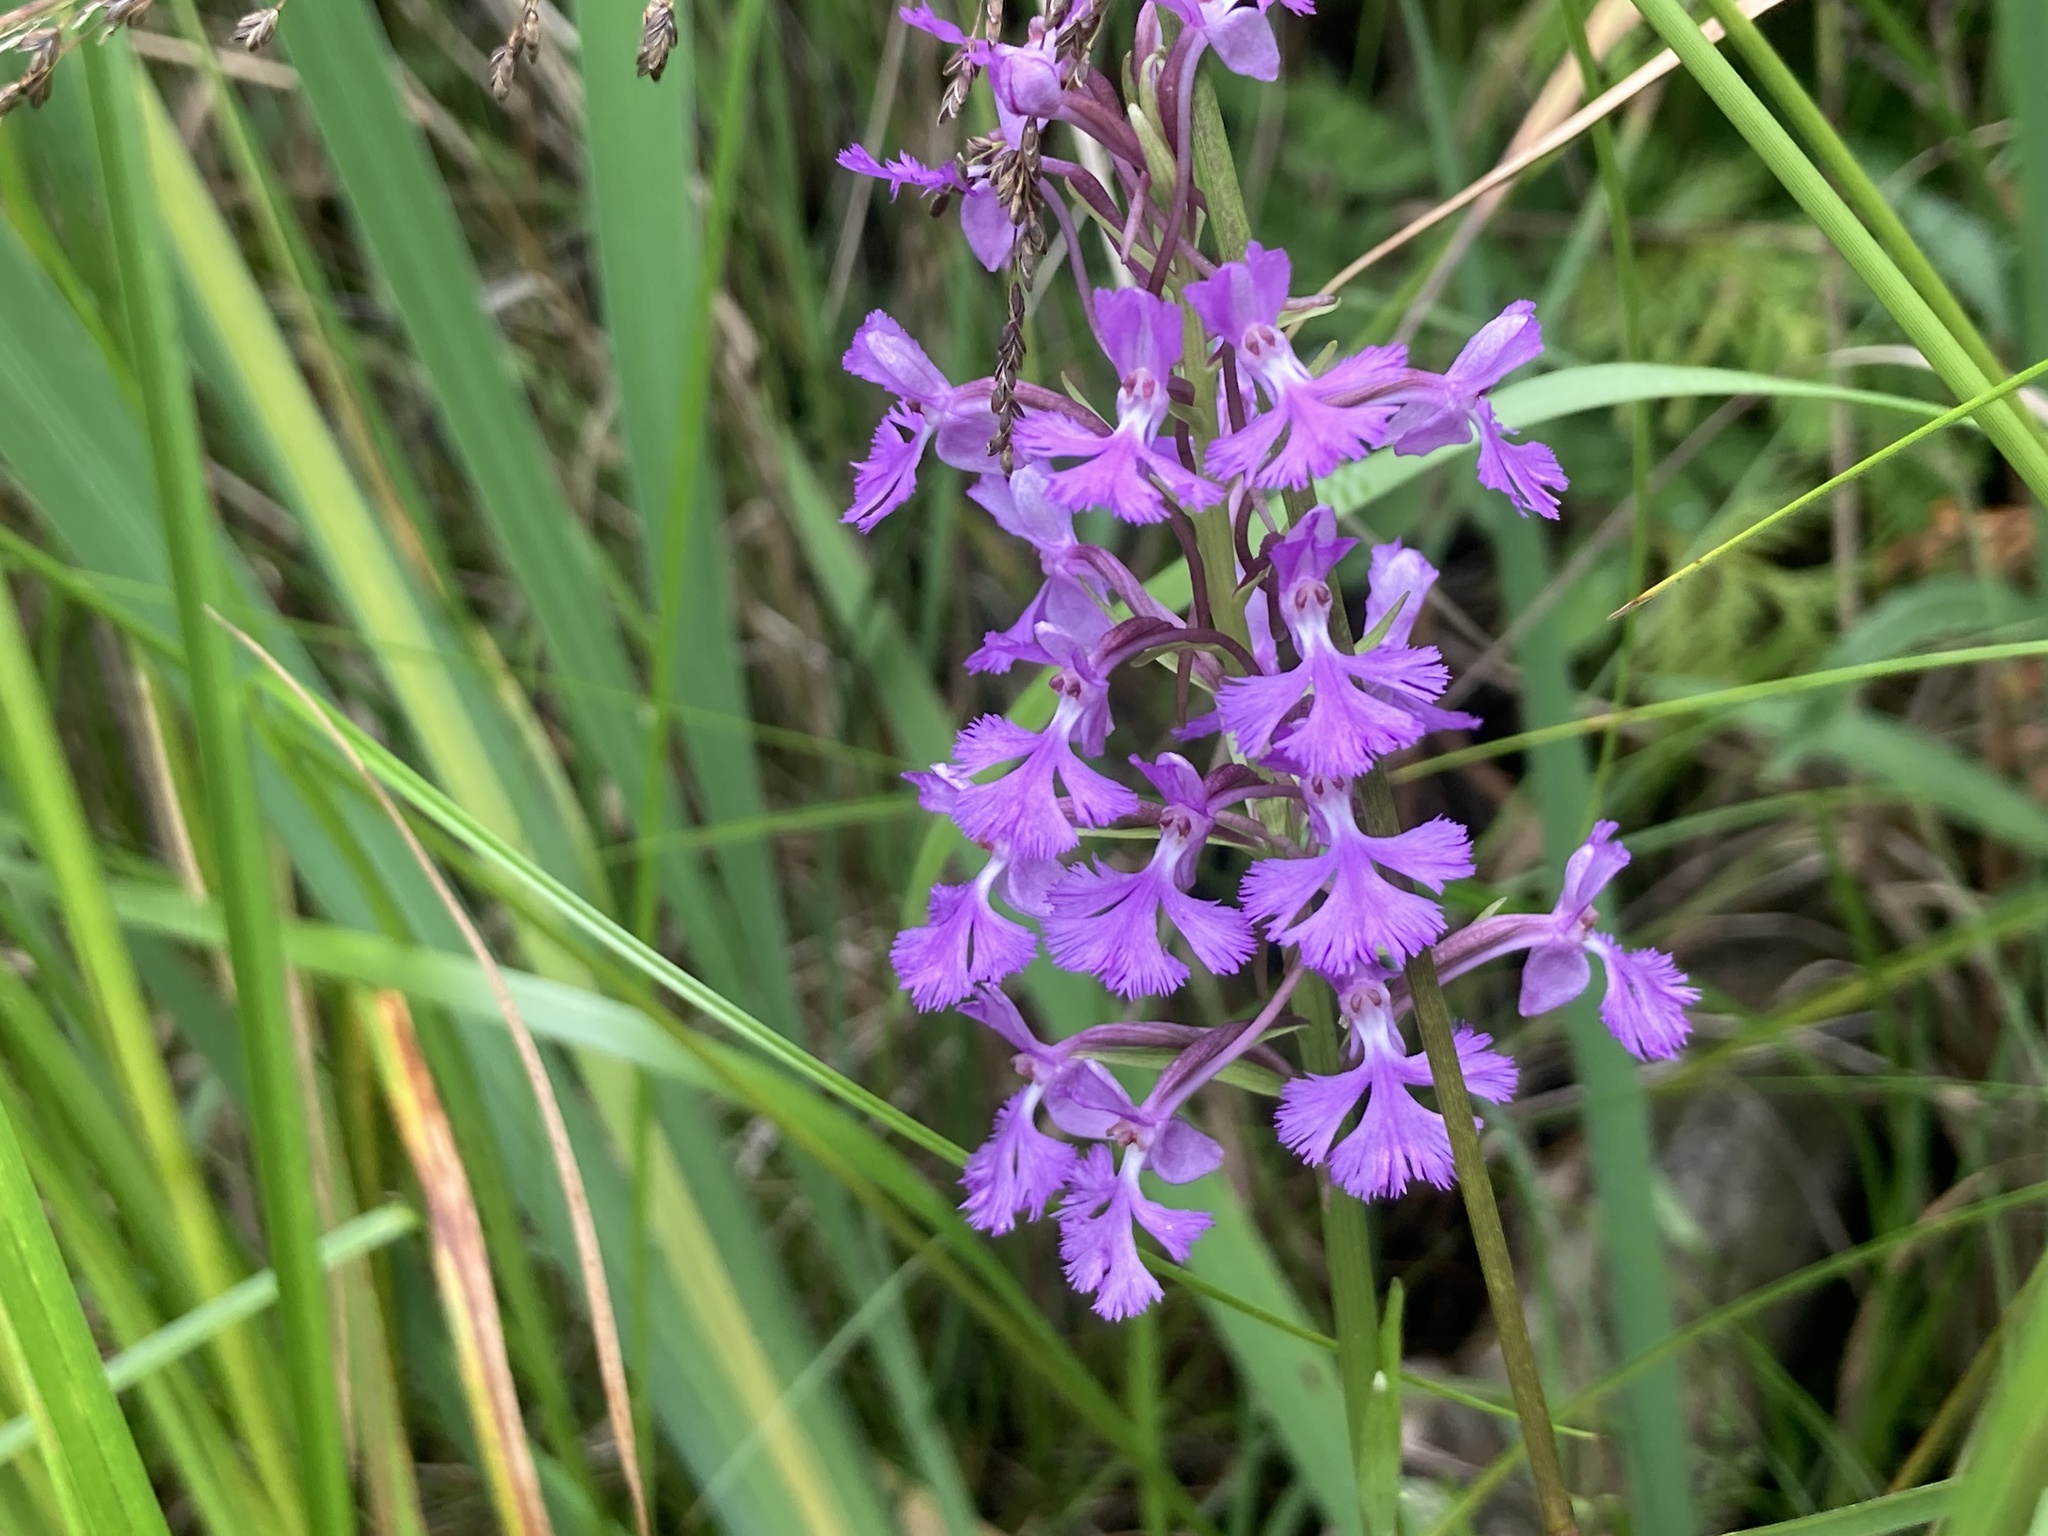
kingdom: Plantae
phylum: Tracheophyta
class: Liliopsida
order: Asparagales
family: Orchidaceae
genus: Platanthera
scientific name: Platanthera psycodes
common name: Lesser purple fringed orchid
